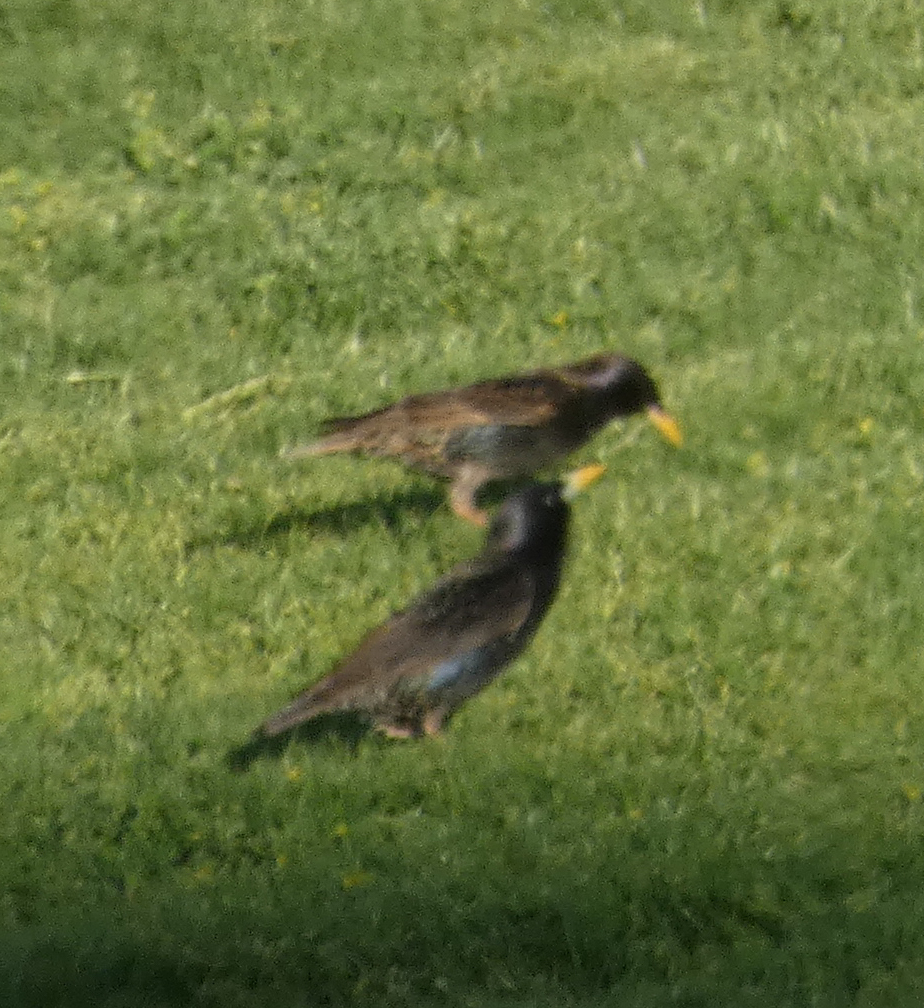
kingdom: Animalia
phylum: Chordata
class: Aves
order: Passeriformes
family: Sturnidae
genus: Sturnus
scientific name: Sturnus vulgaris
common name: Common starling
